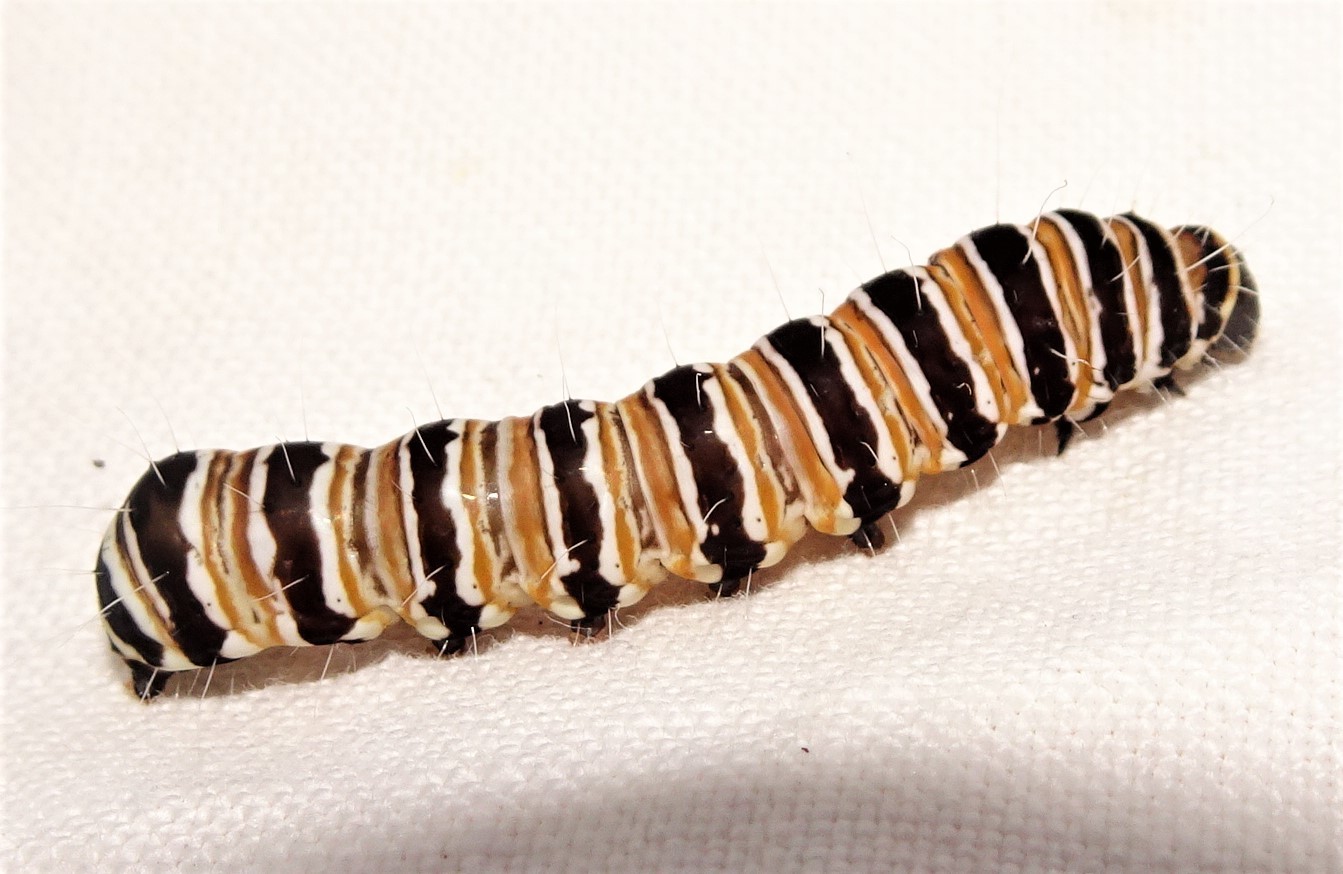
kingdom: Animalia
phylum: Arthropoda
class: Insecta
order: Lepidoptera
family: Noctuidae
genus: Cruria
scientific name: Cruria donowani
